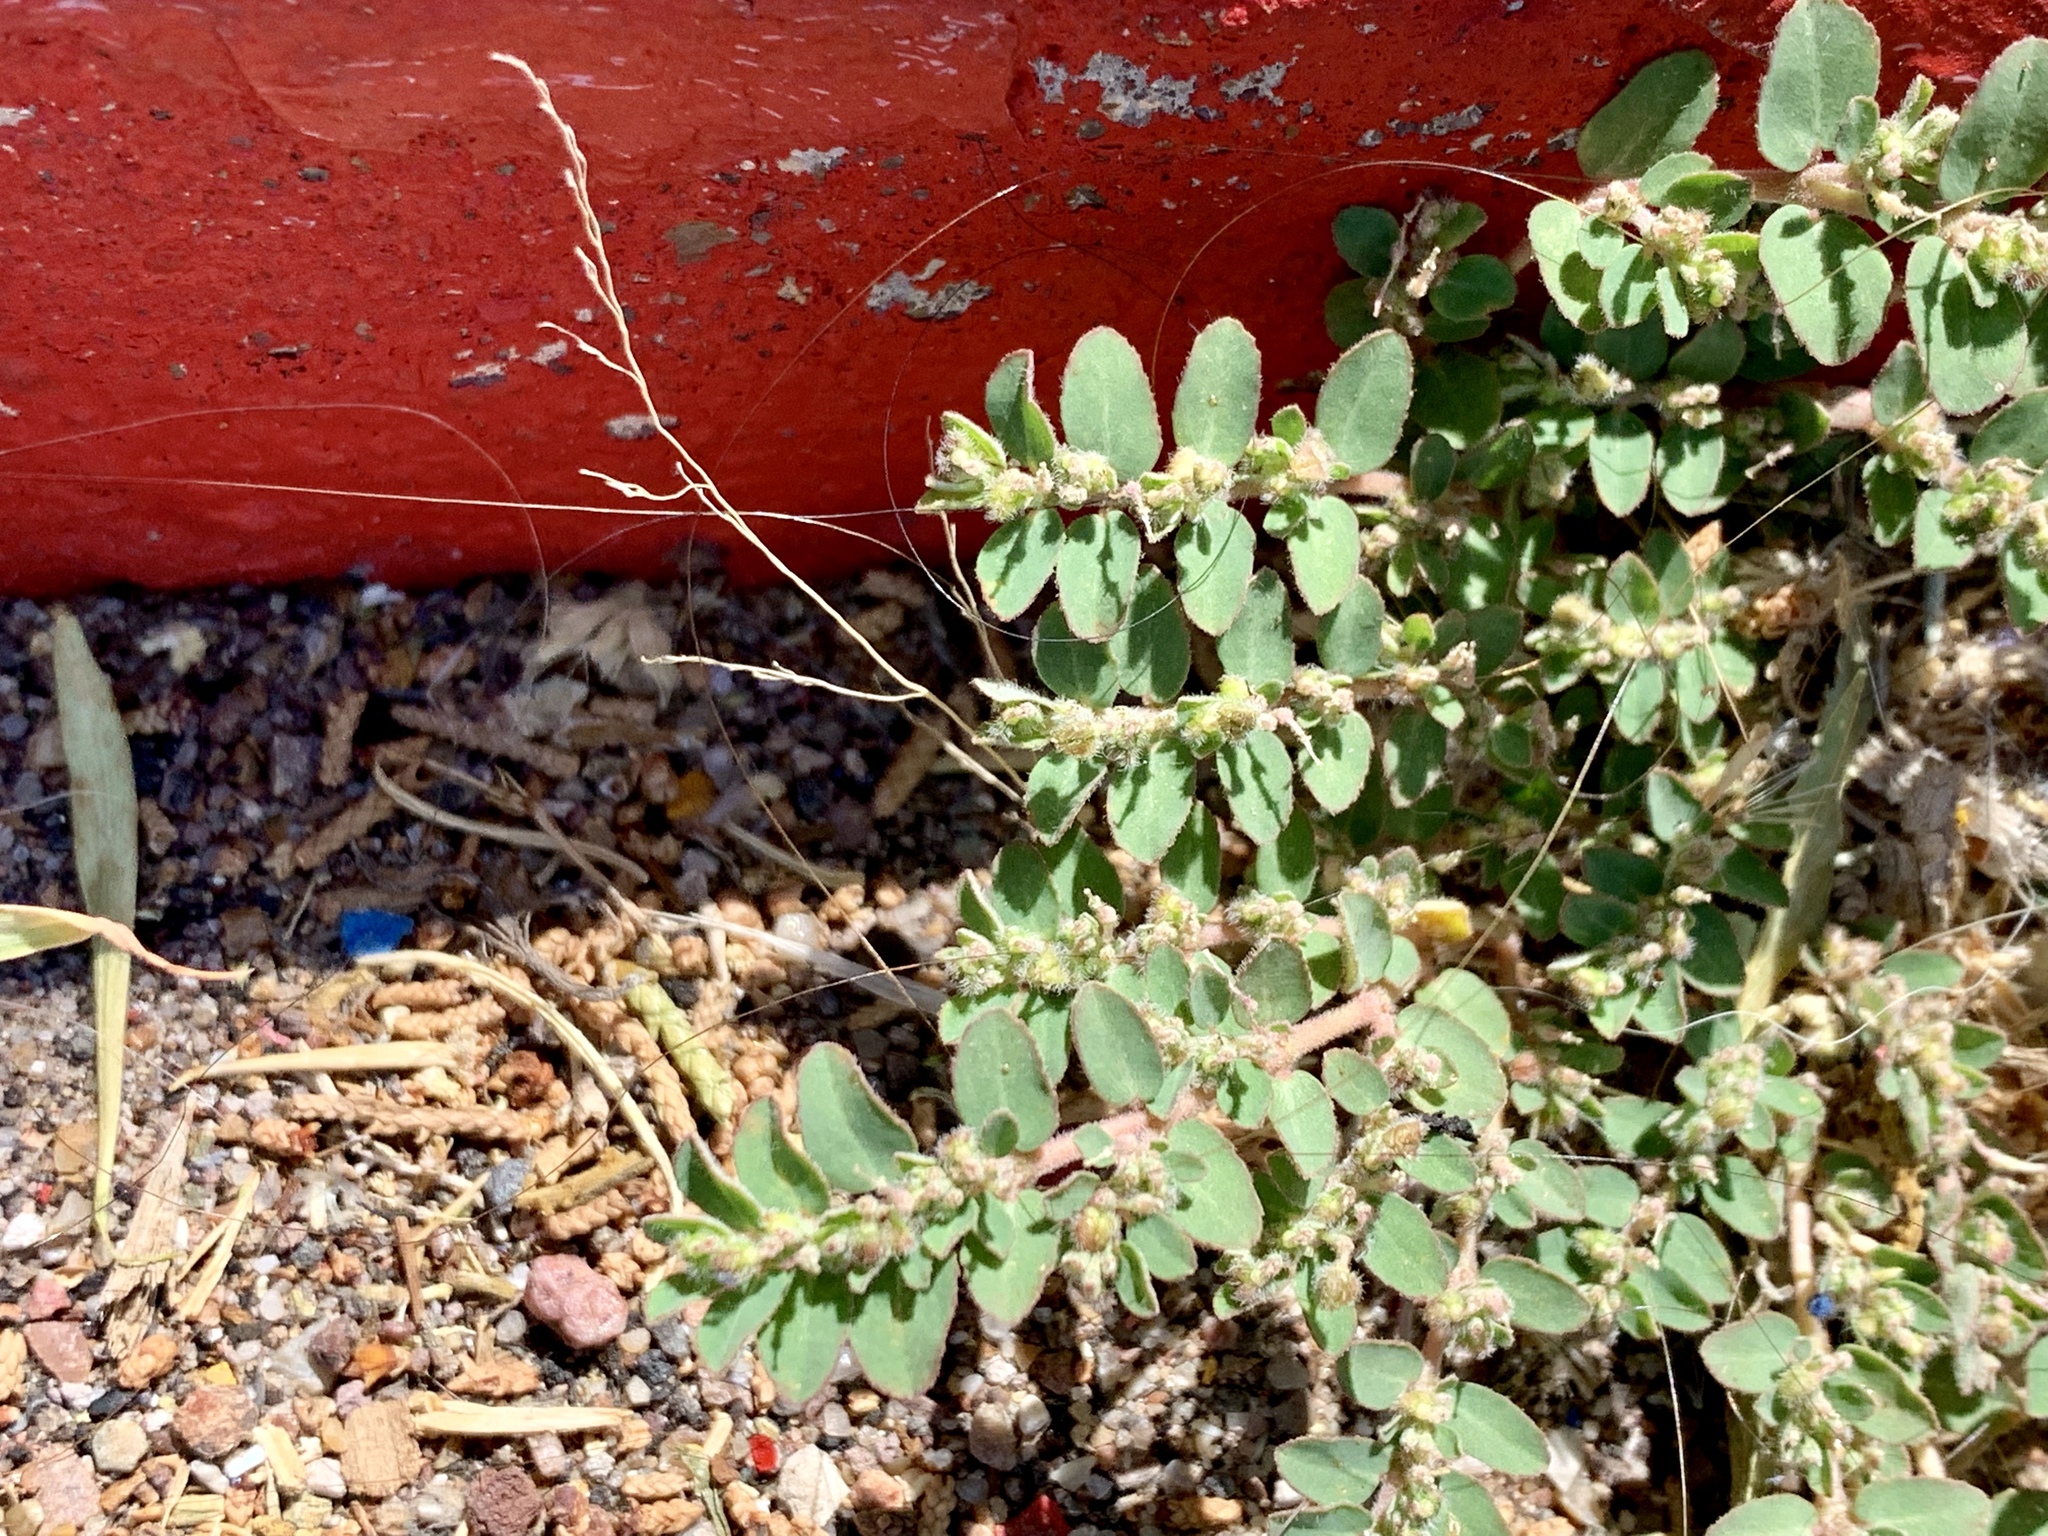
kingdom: Plantae
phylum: Tracheophyta
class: Magnoliopsida
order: Malpighiales
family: Euphorbiaceae
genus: Euphorbia
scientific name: Euphorbia prostrata
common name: Prostrate sandmat
